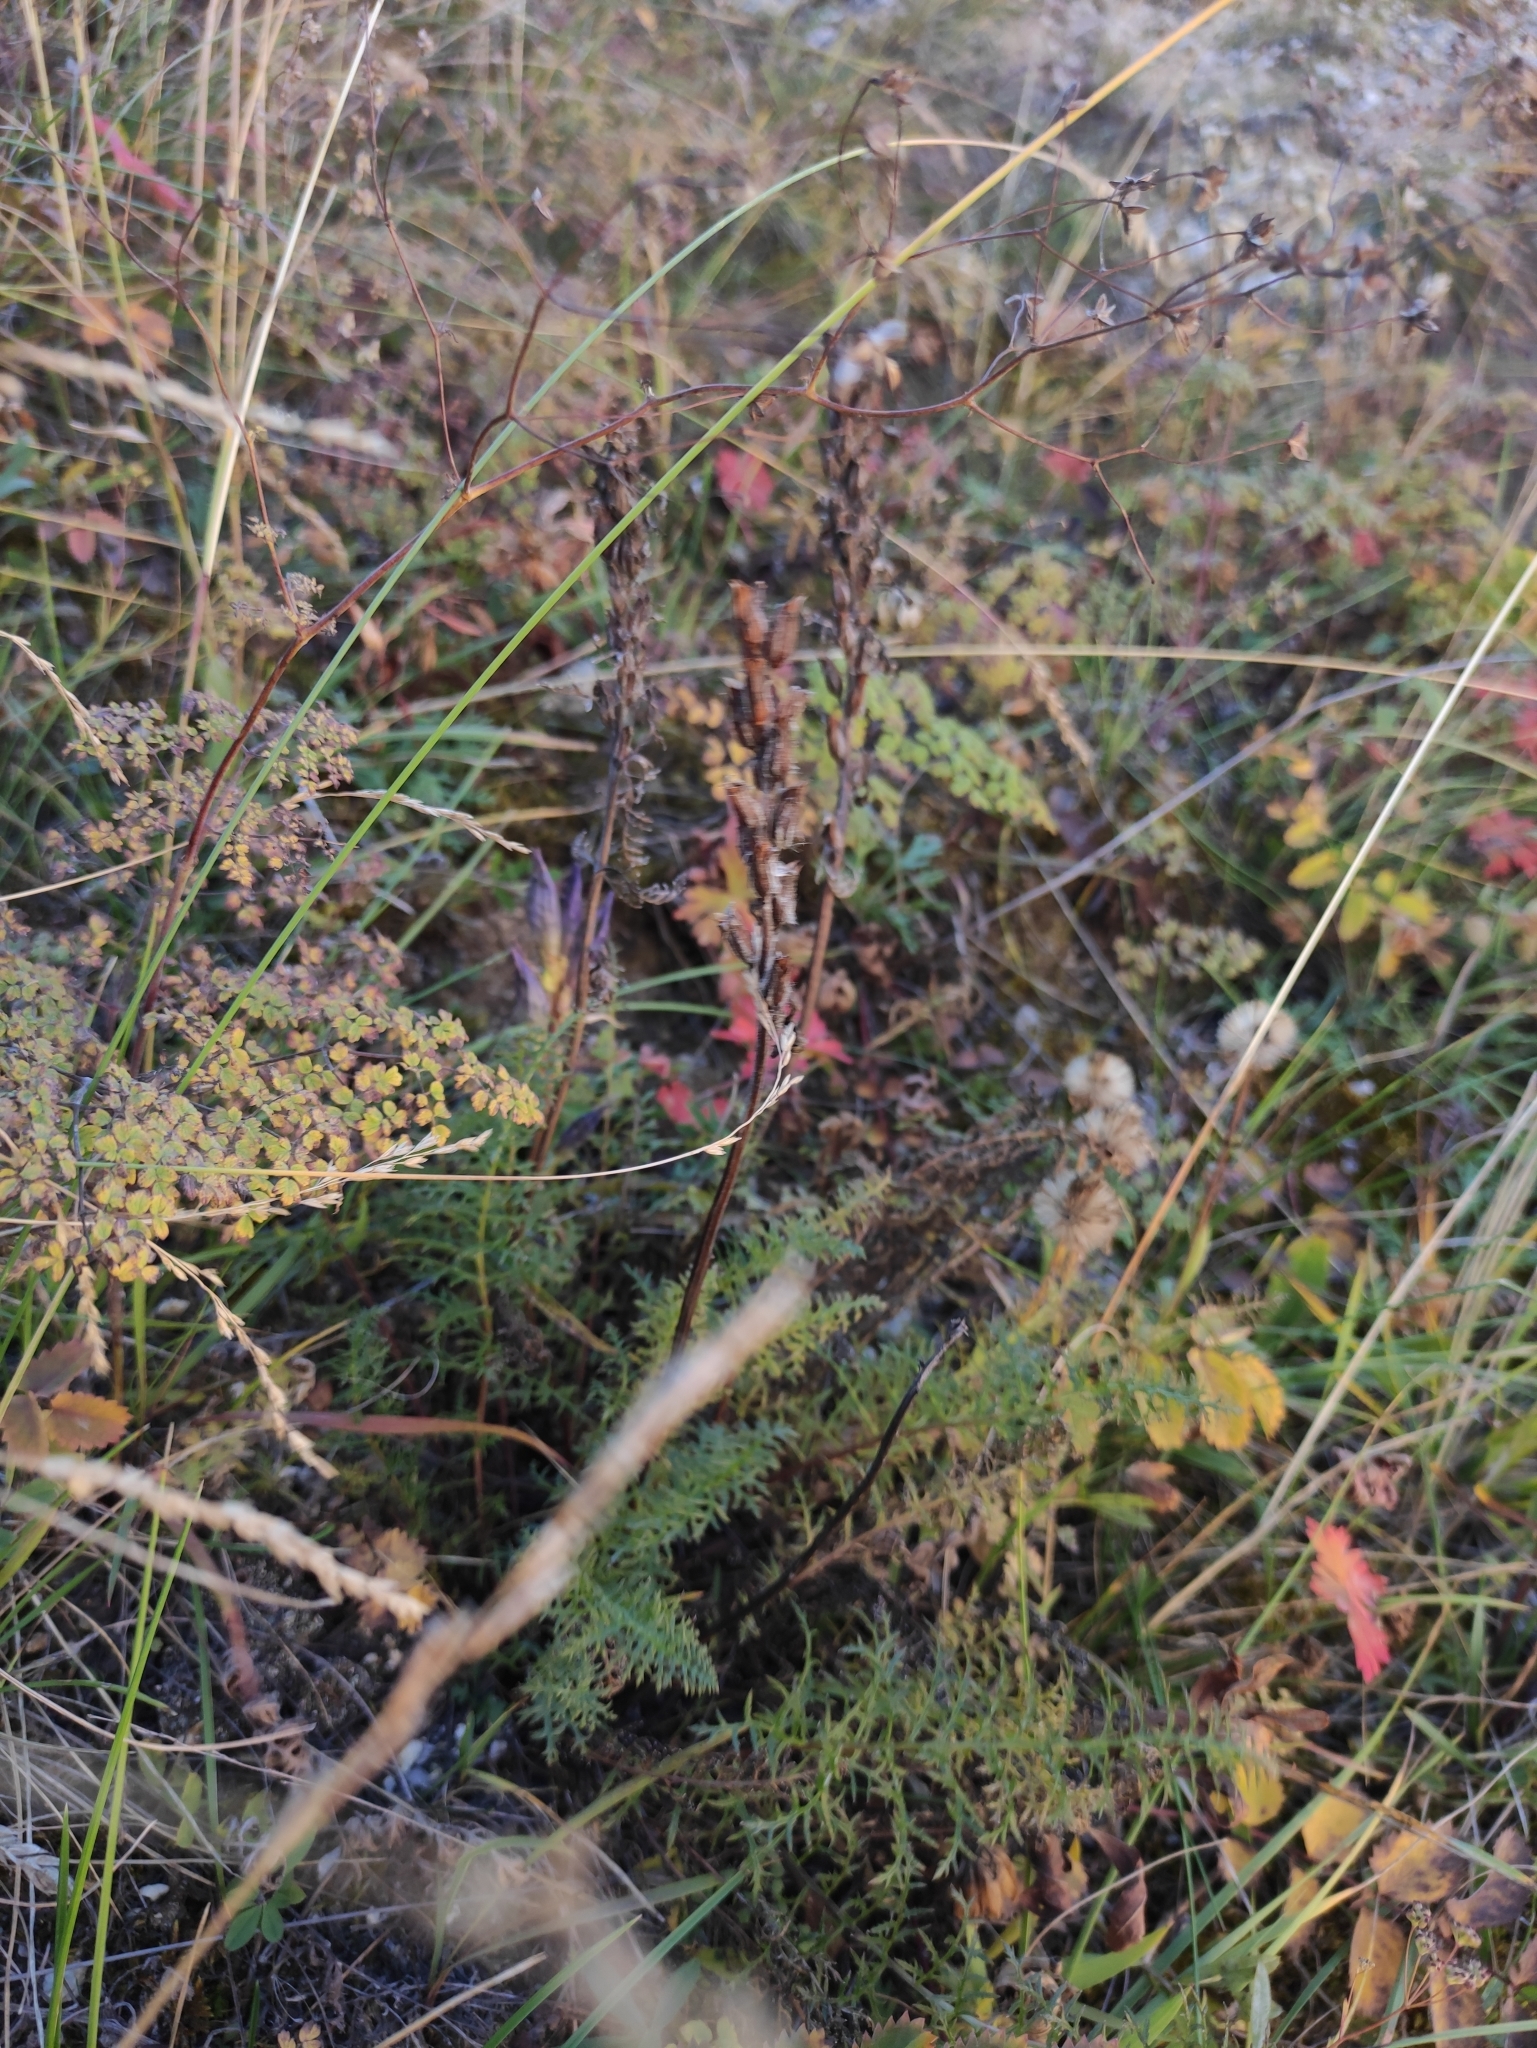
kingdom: Plantae
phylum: Tracheophyta
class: Magnoliopsida
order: Lamiales
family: Orobanchaceae
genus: Pedicularis
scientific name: Pedicularis rubens
